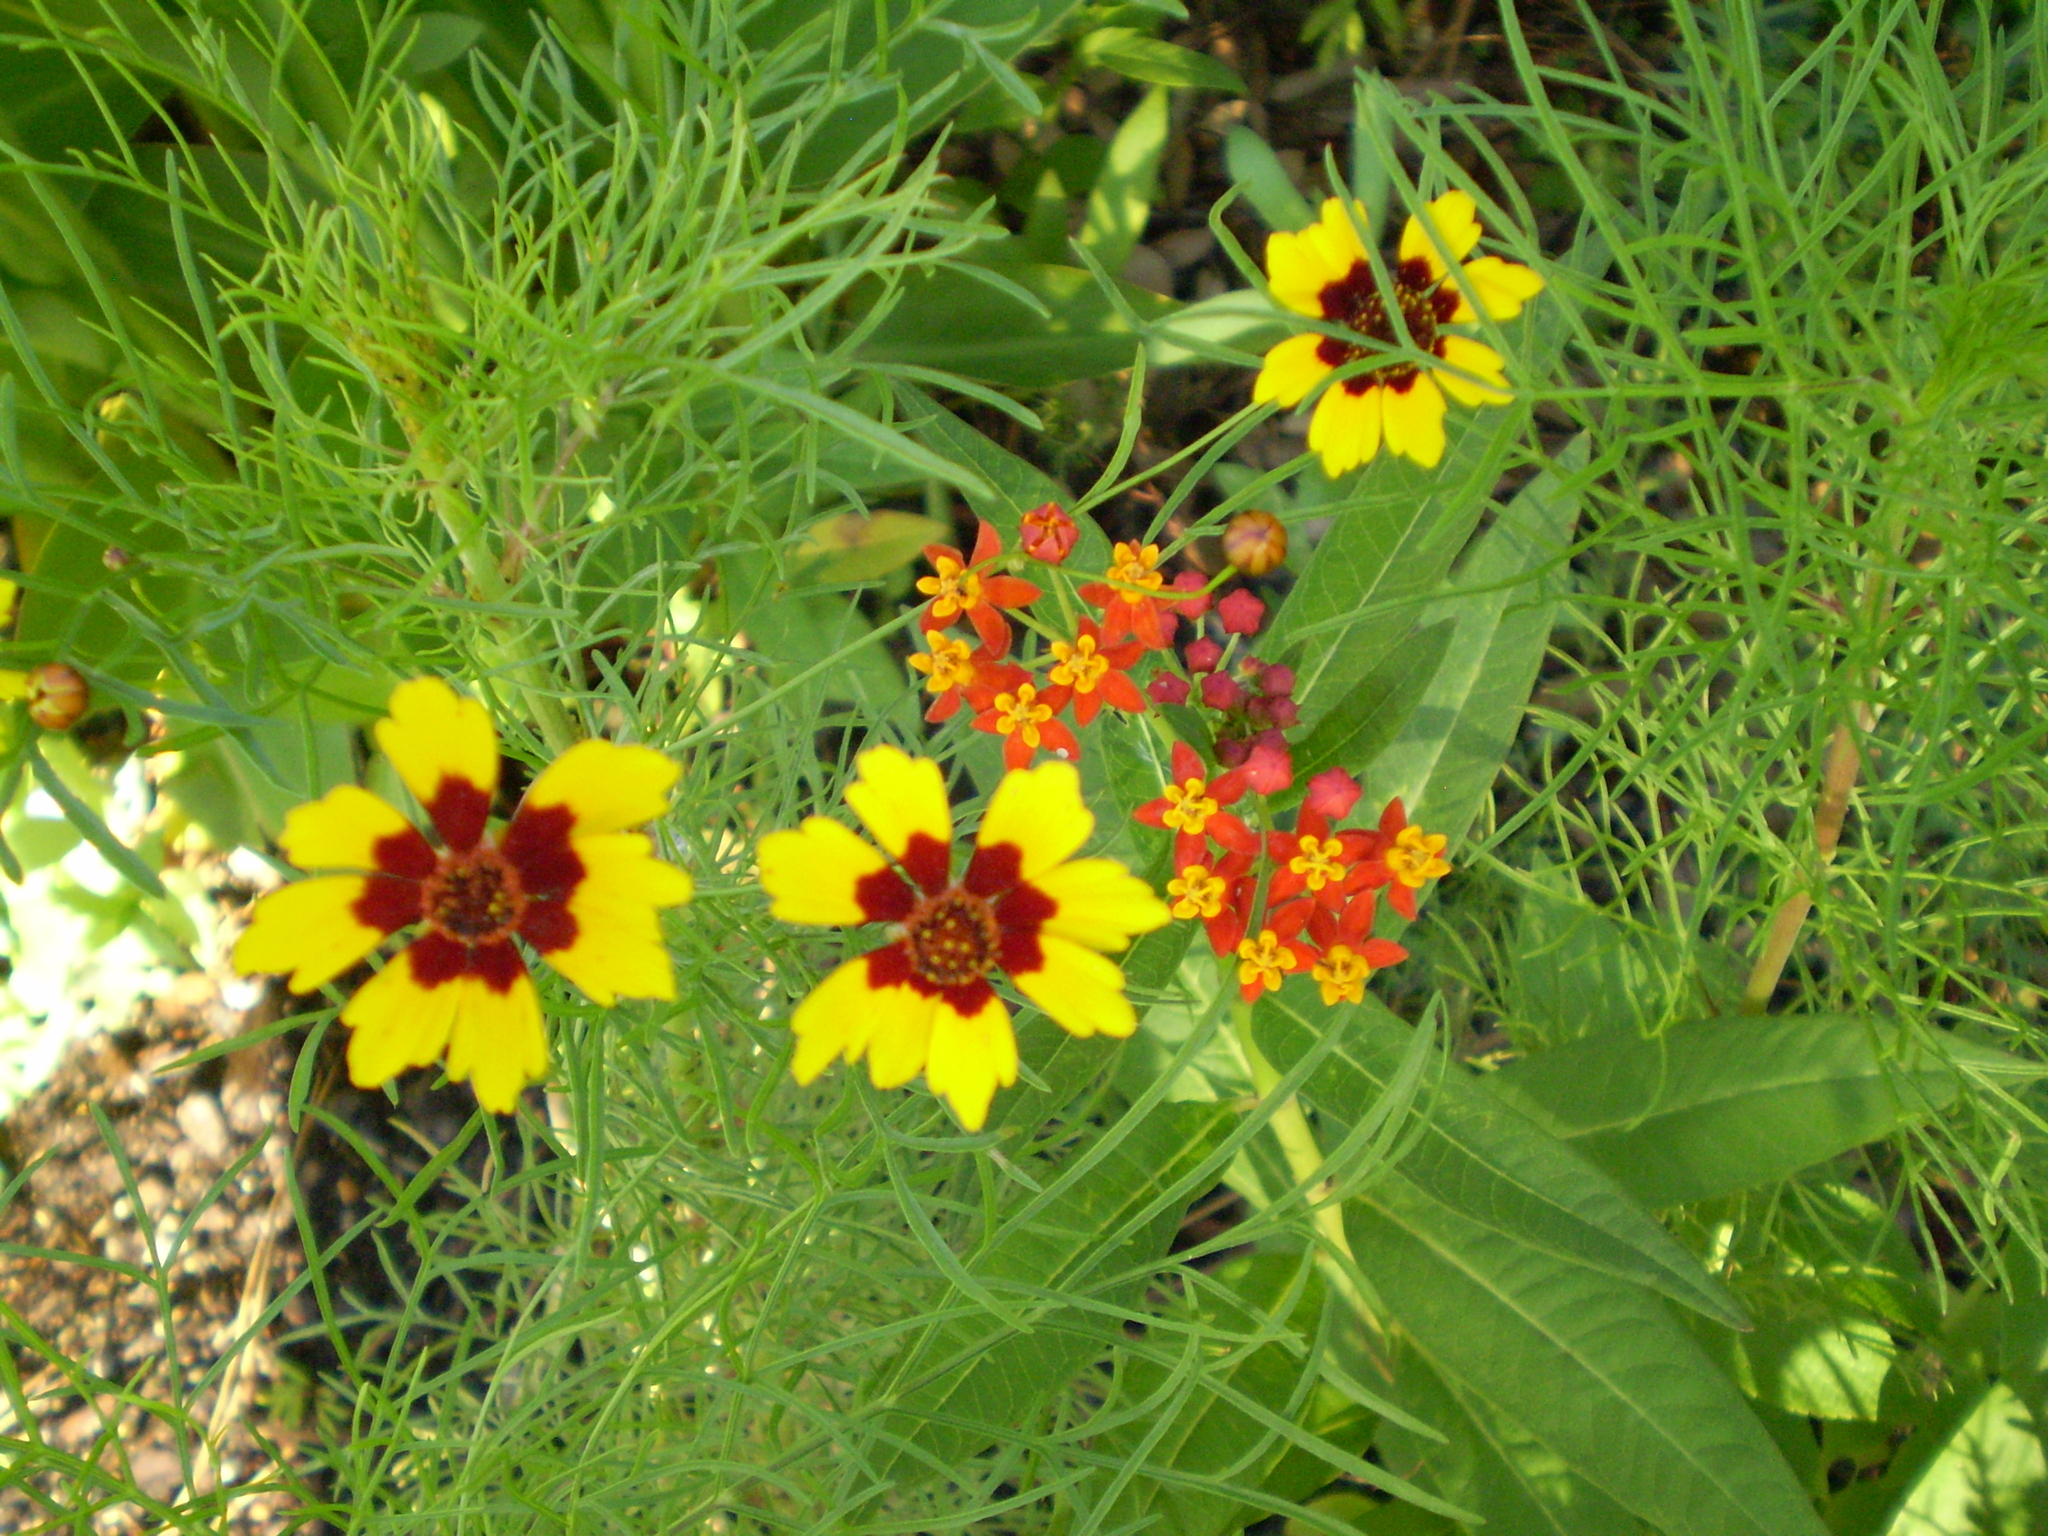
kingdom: Plantae
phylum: Tracheophyta
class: Magnoliopsida
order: Asterales
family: Asteraceae
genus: Coreopsis
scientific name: Coreopsis tinctoria
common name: Garden tickseed
